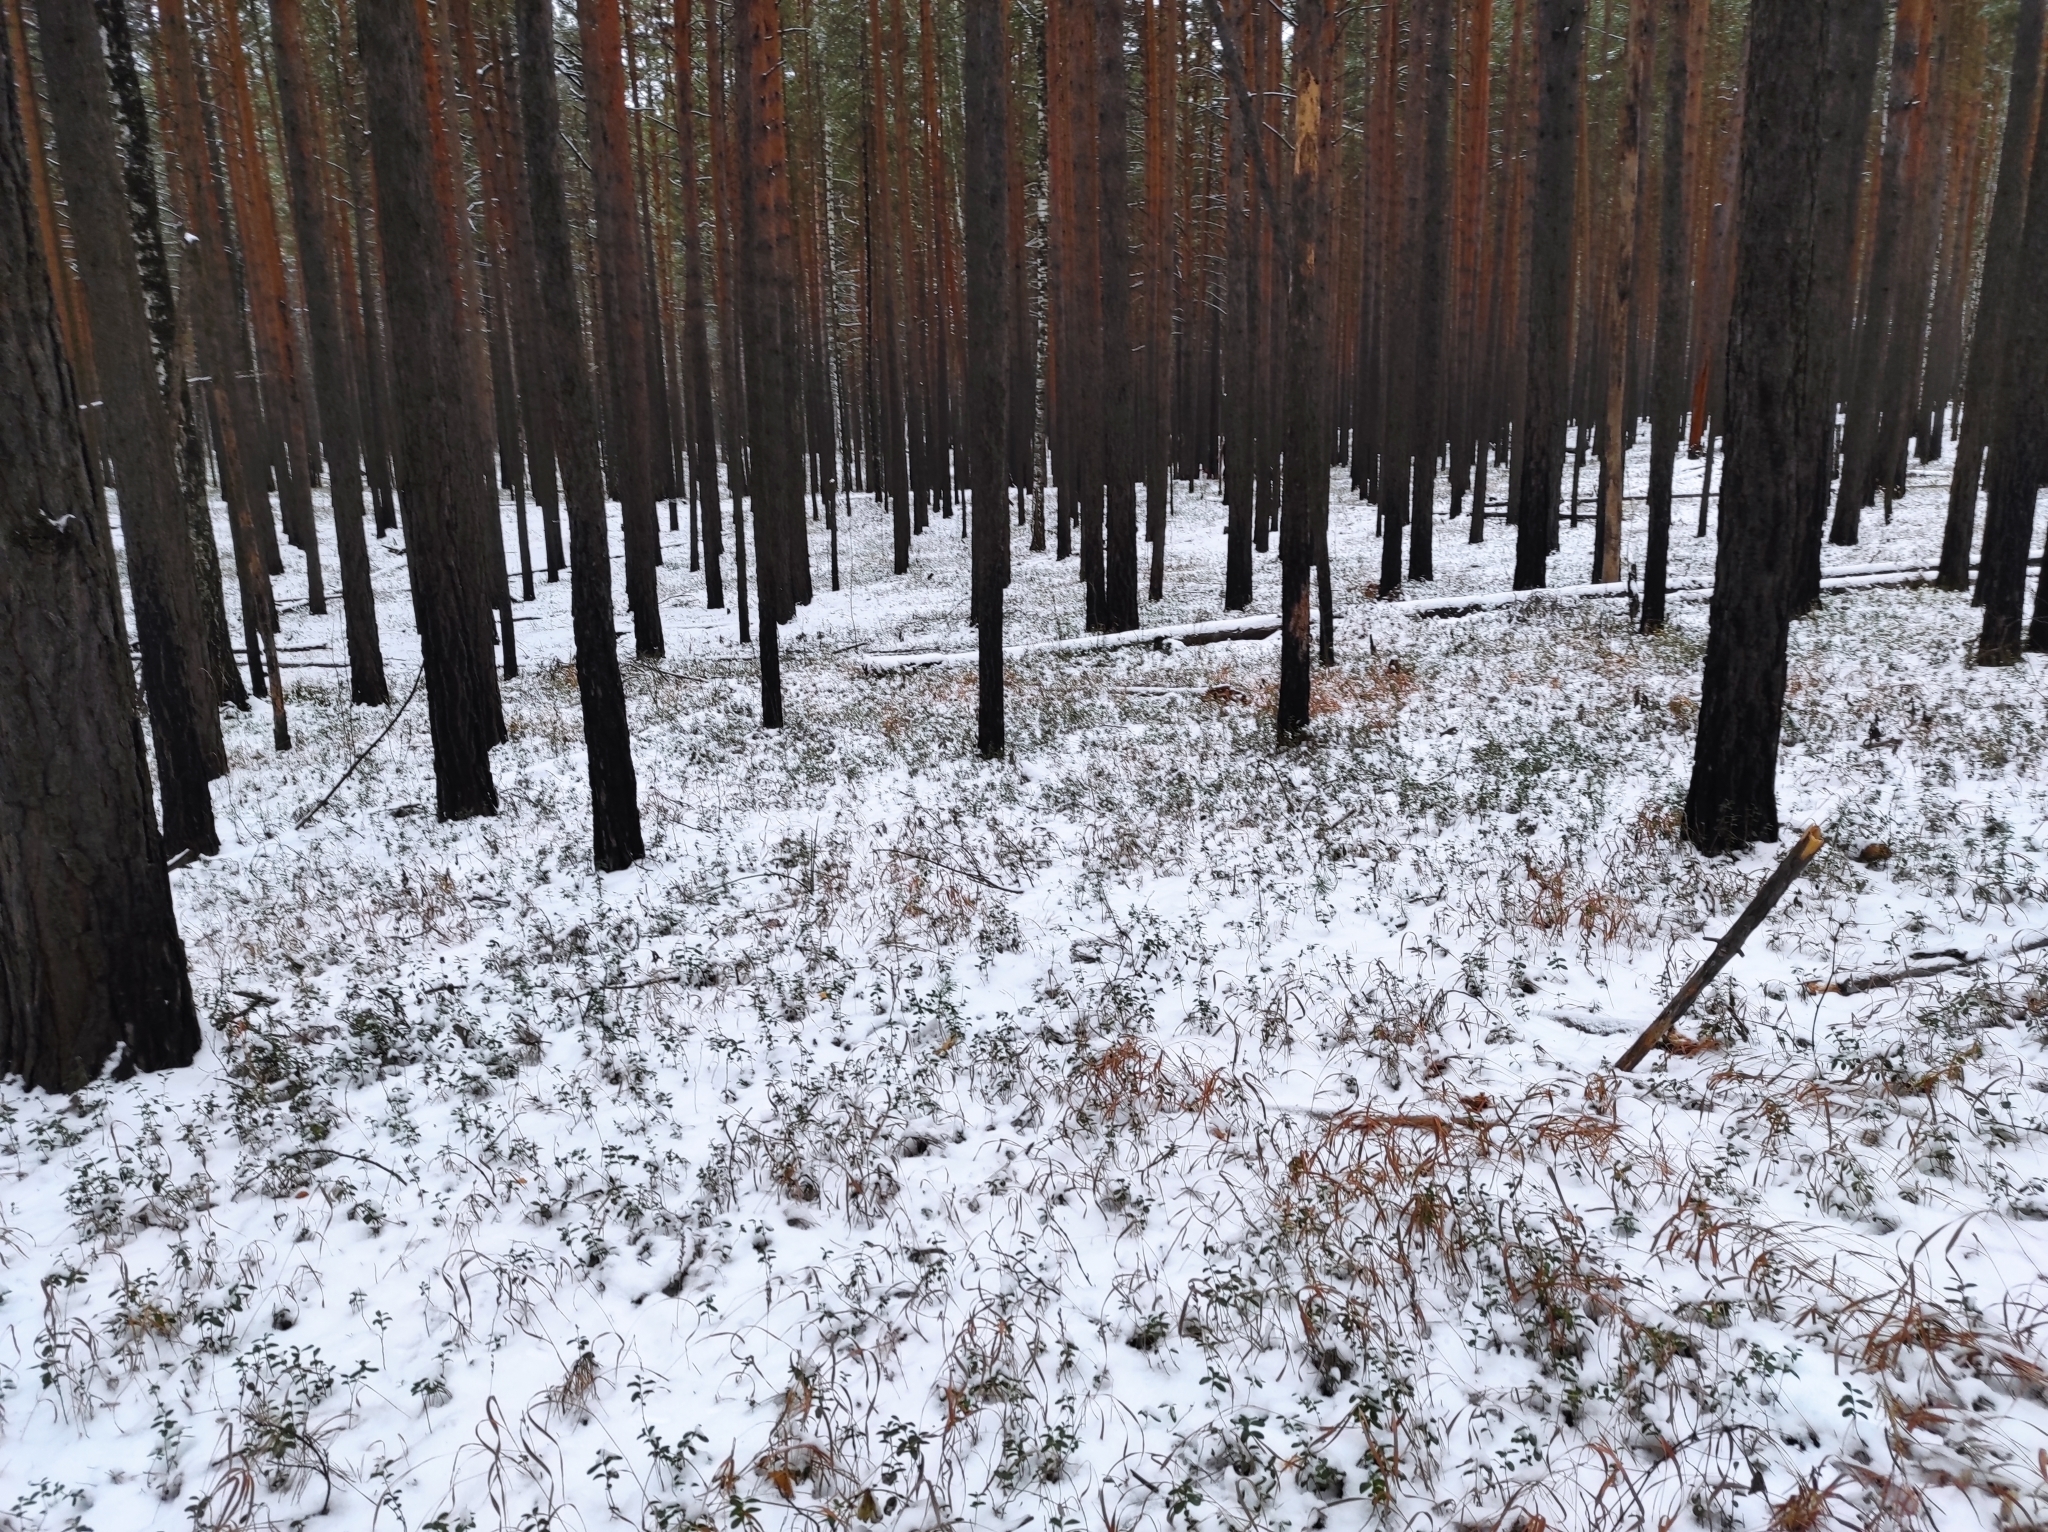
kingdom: Plantae
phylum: Tracheophyta
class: Pinopsida
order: Pinales
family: Pinaceae
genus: Pinus
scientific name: Pinus sylvestris
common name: Scots pine
